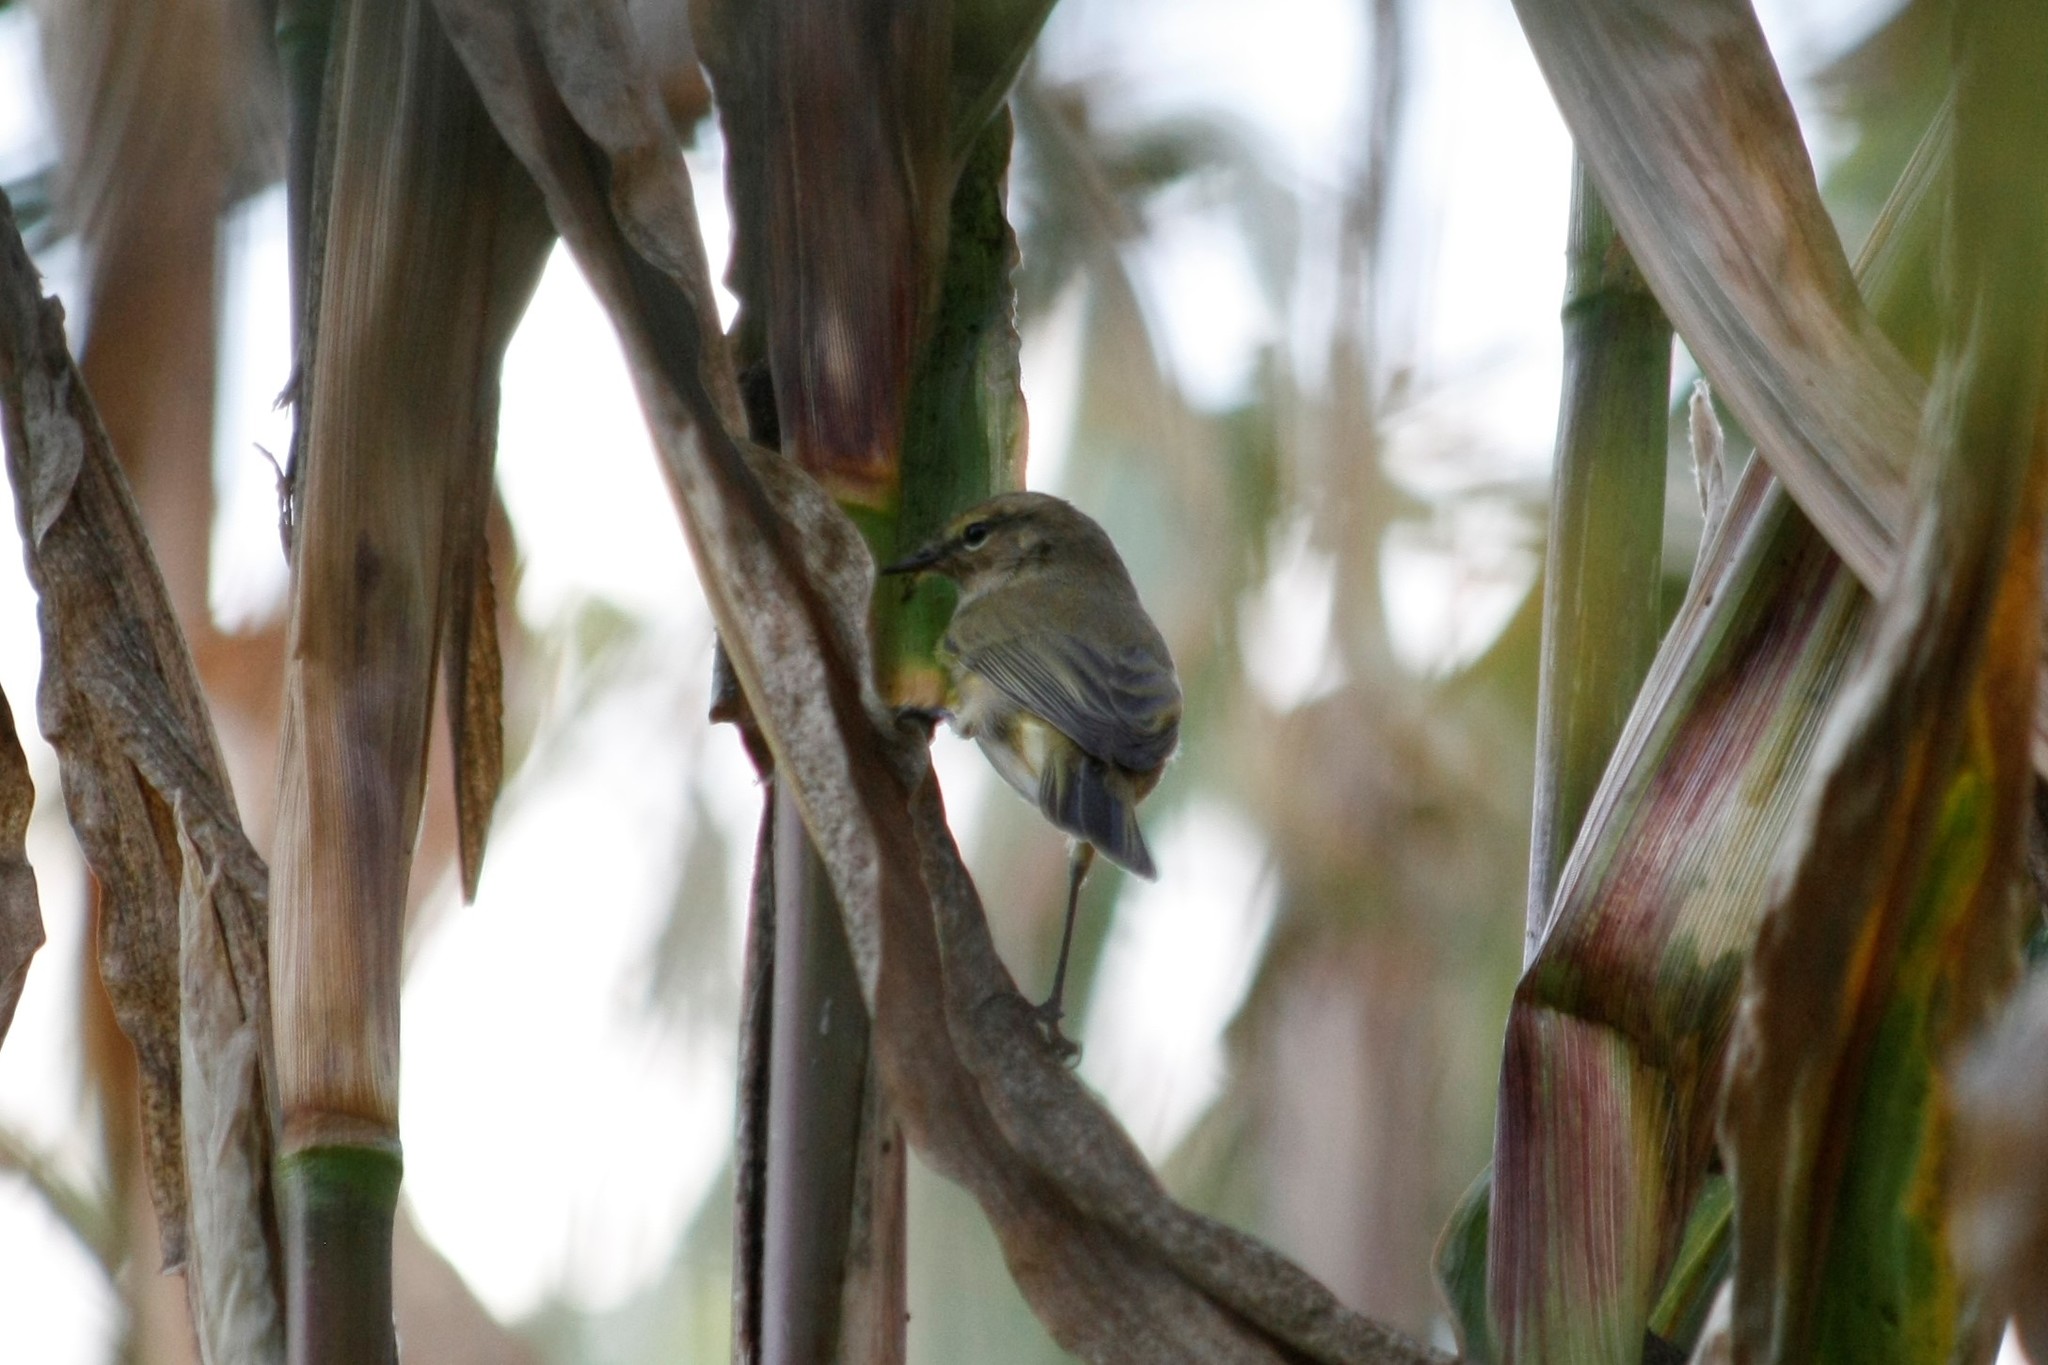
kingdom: Animalia
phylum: Chordata
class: Aves
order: Passeriformes
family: Phylloscopidae
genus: Phylloscopus
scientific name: Phylloscopus collybita
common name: Common chiffchaff
